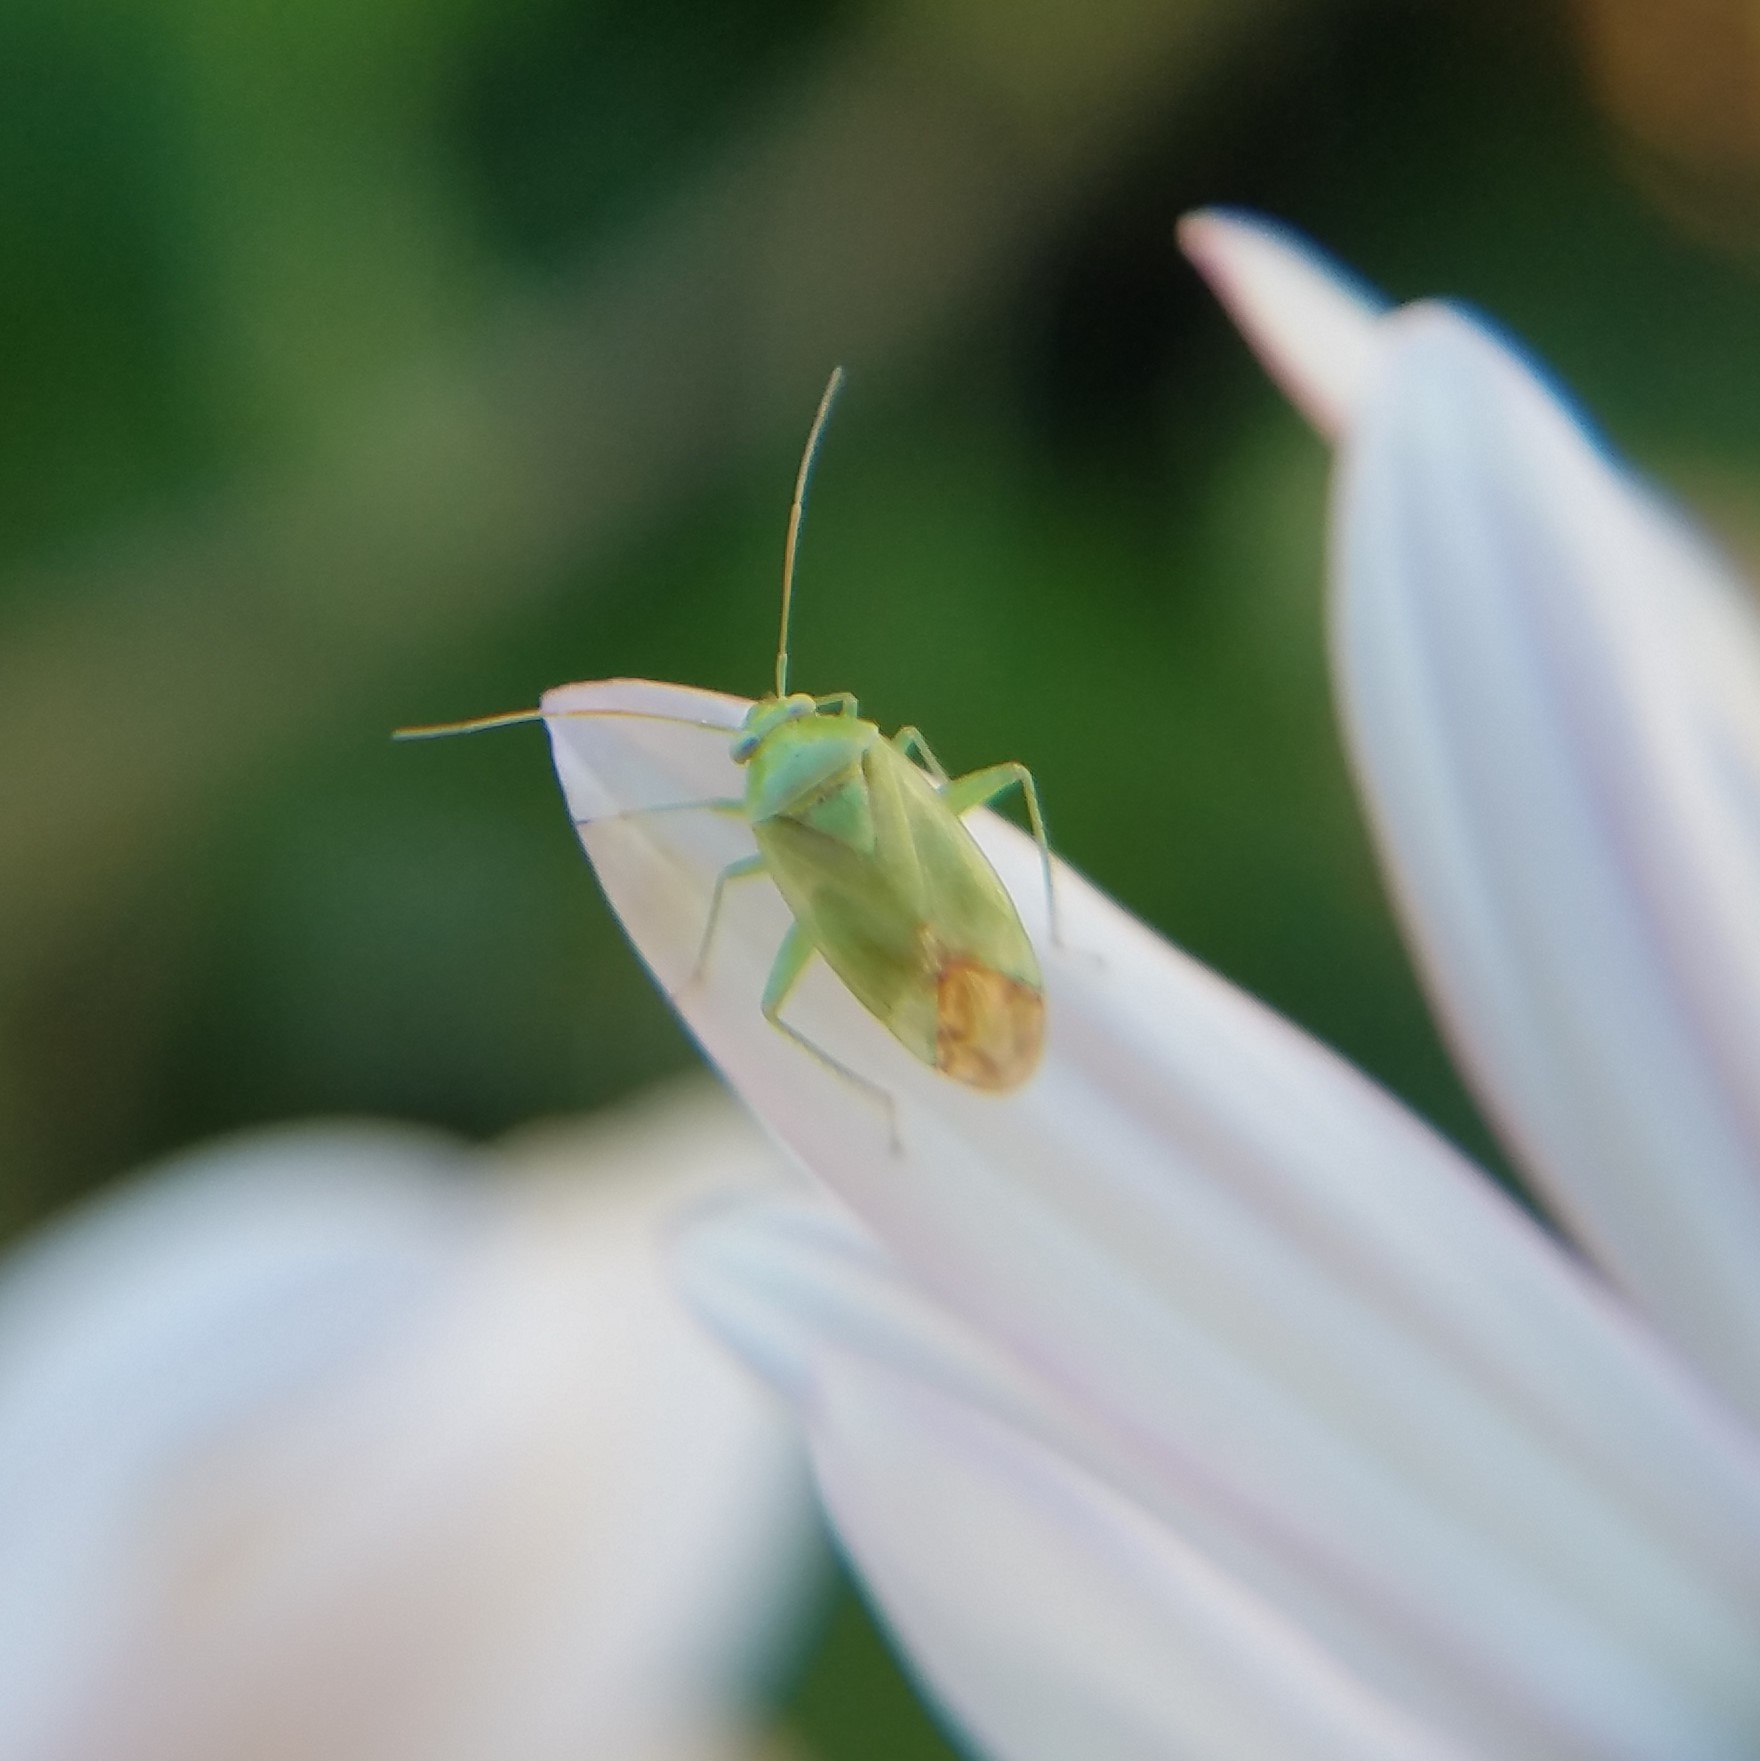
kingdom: Animalia
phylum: Arthropoda
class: Insecta
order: Hemiptera
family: Miridae
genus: Taylorilygus
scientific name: Taylorilygus apicalis
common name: Plant bug
